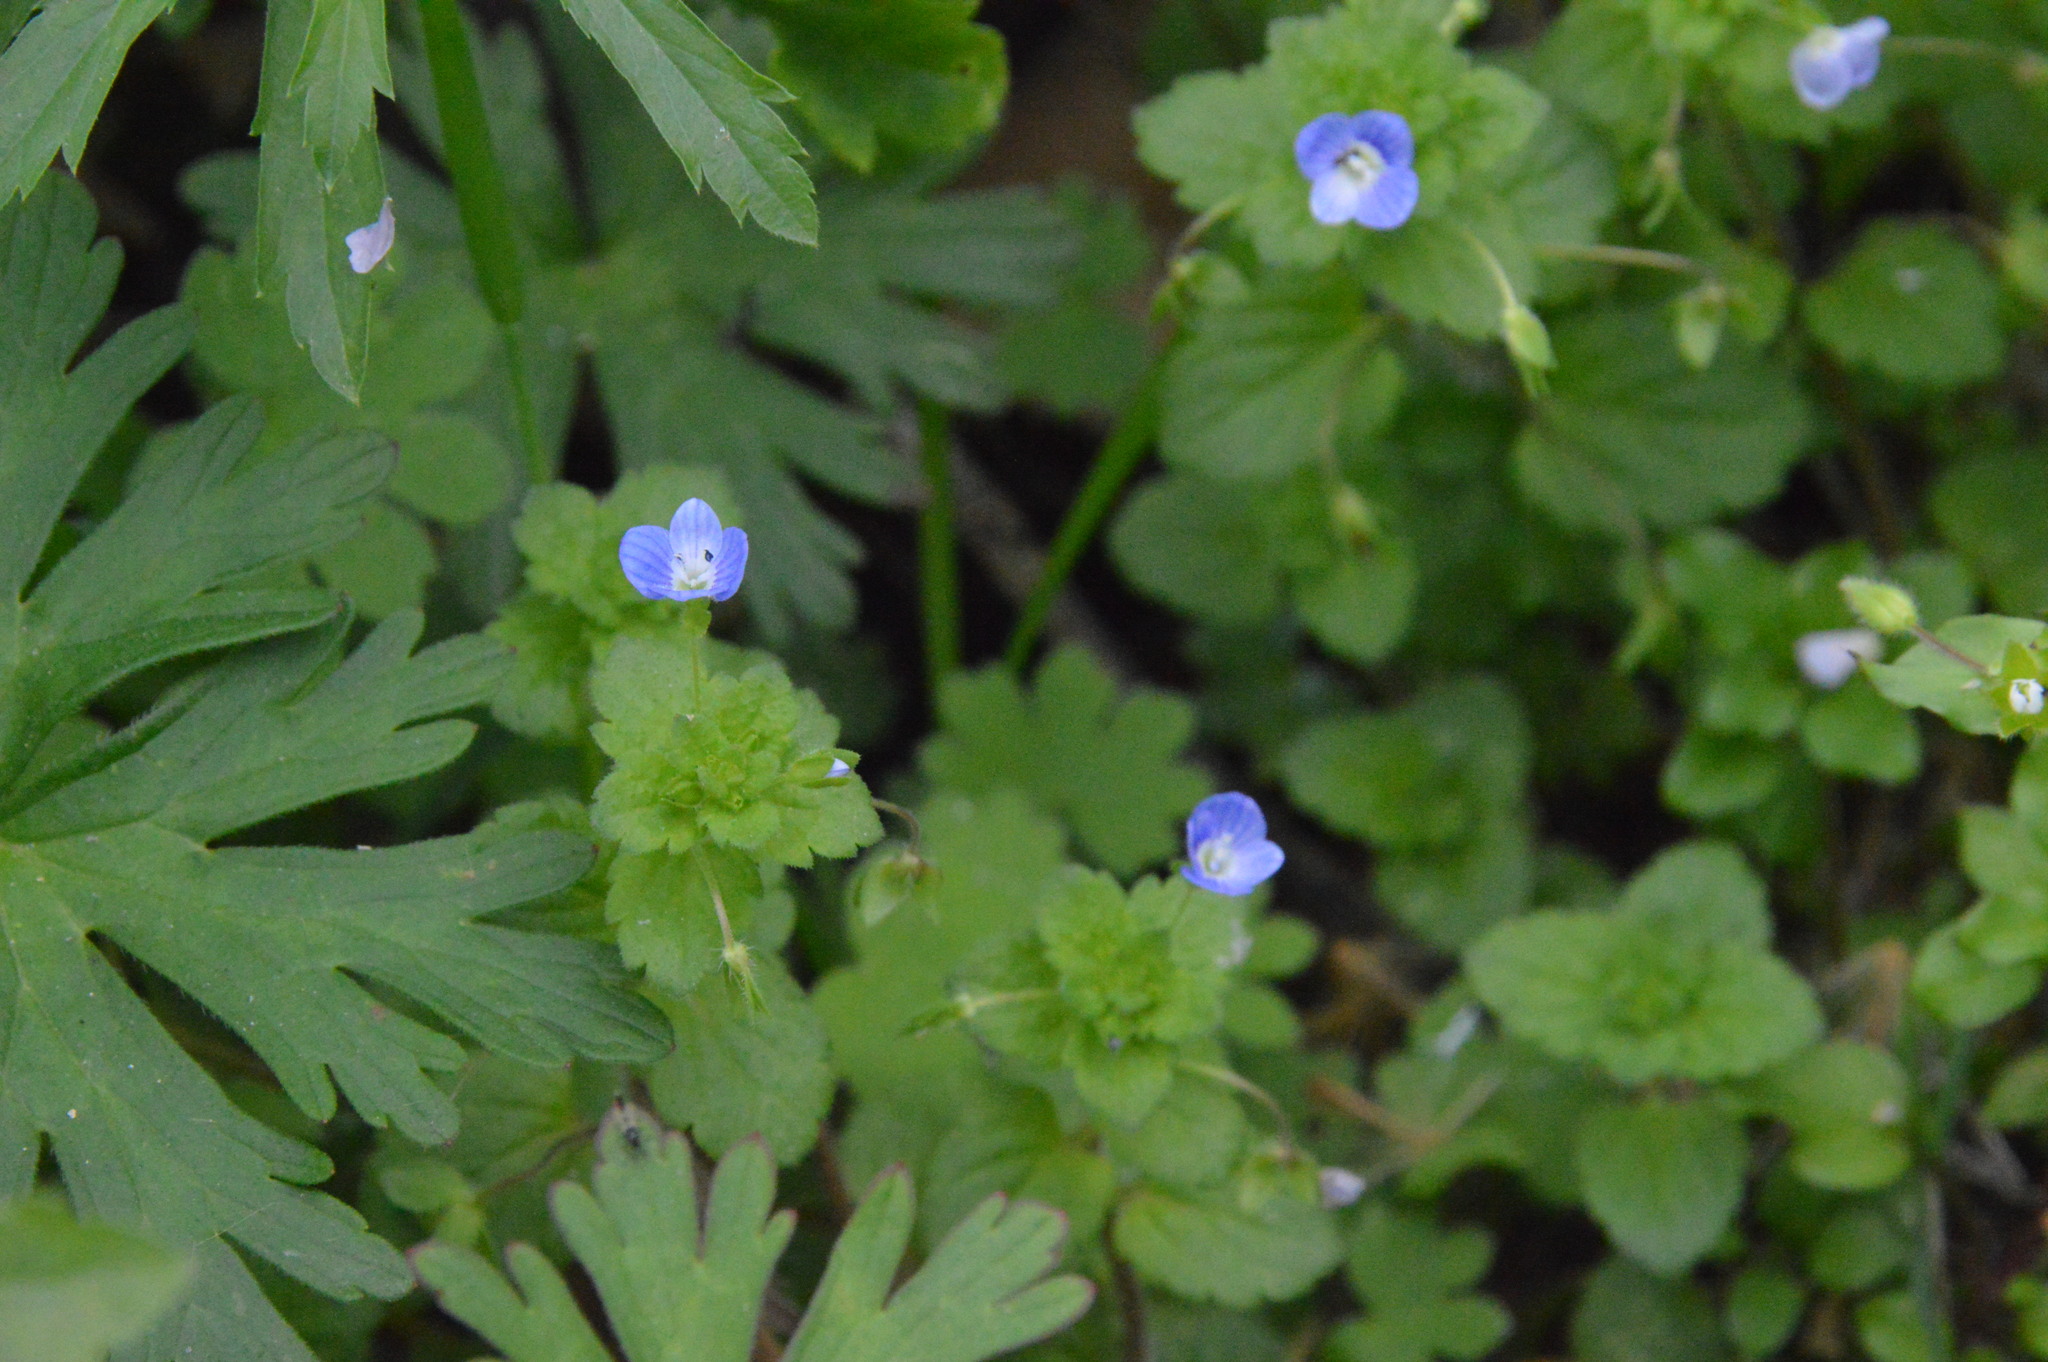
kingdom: Plantae
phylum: Tracheophyta
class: Magnoliopsida
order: Lamiales
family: Plantaginaceae
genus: Veronica
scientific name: Veronica persica
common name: Common field-speedwell
